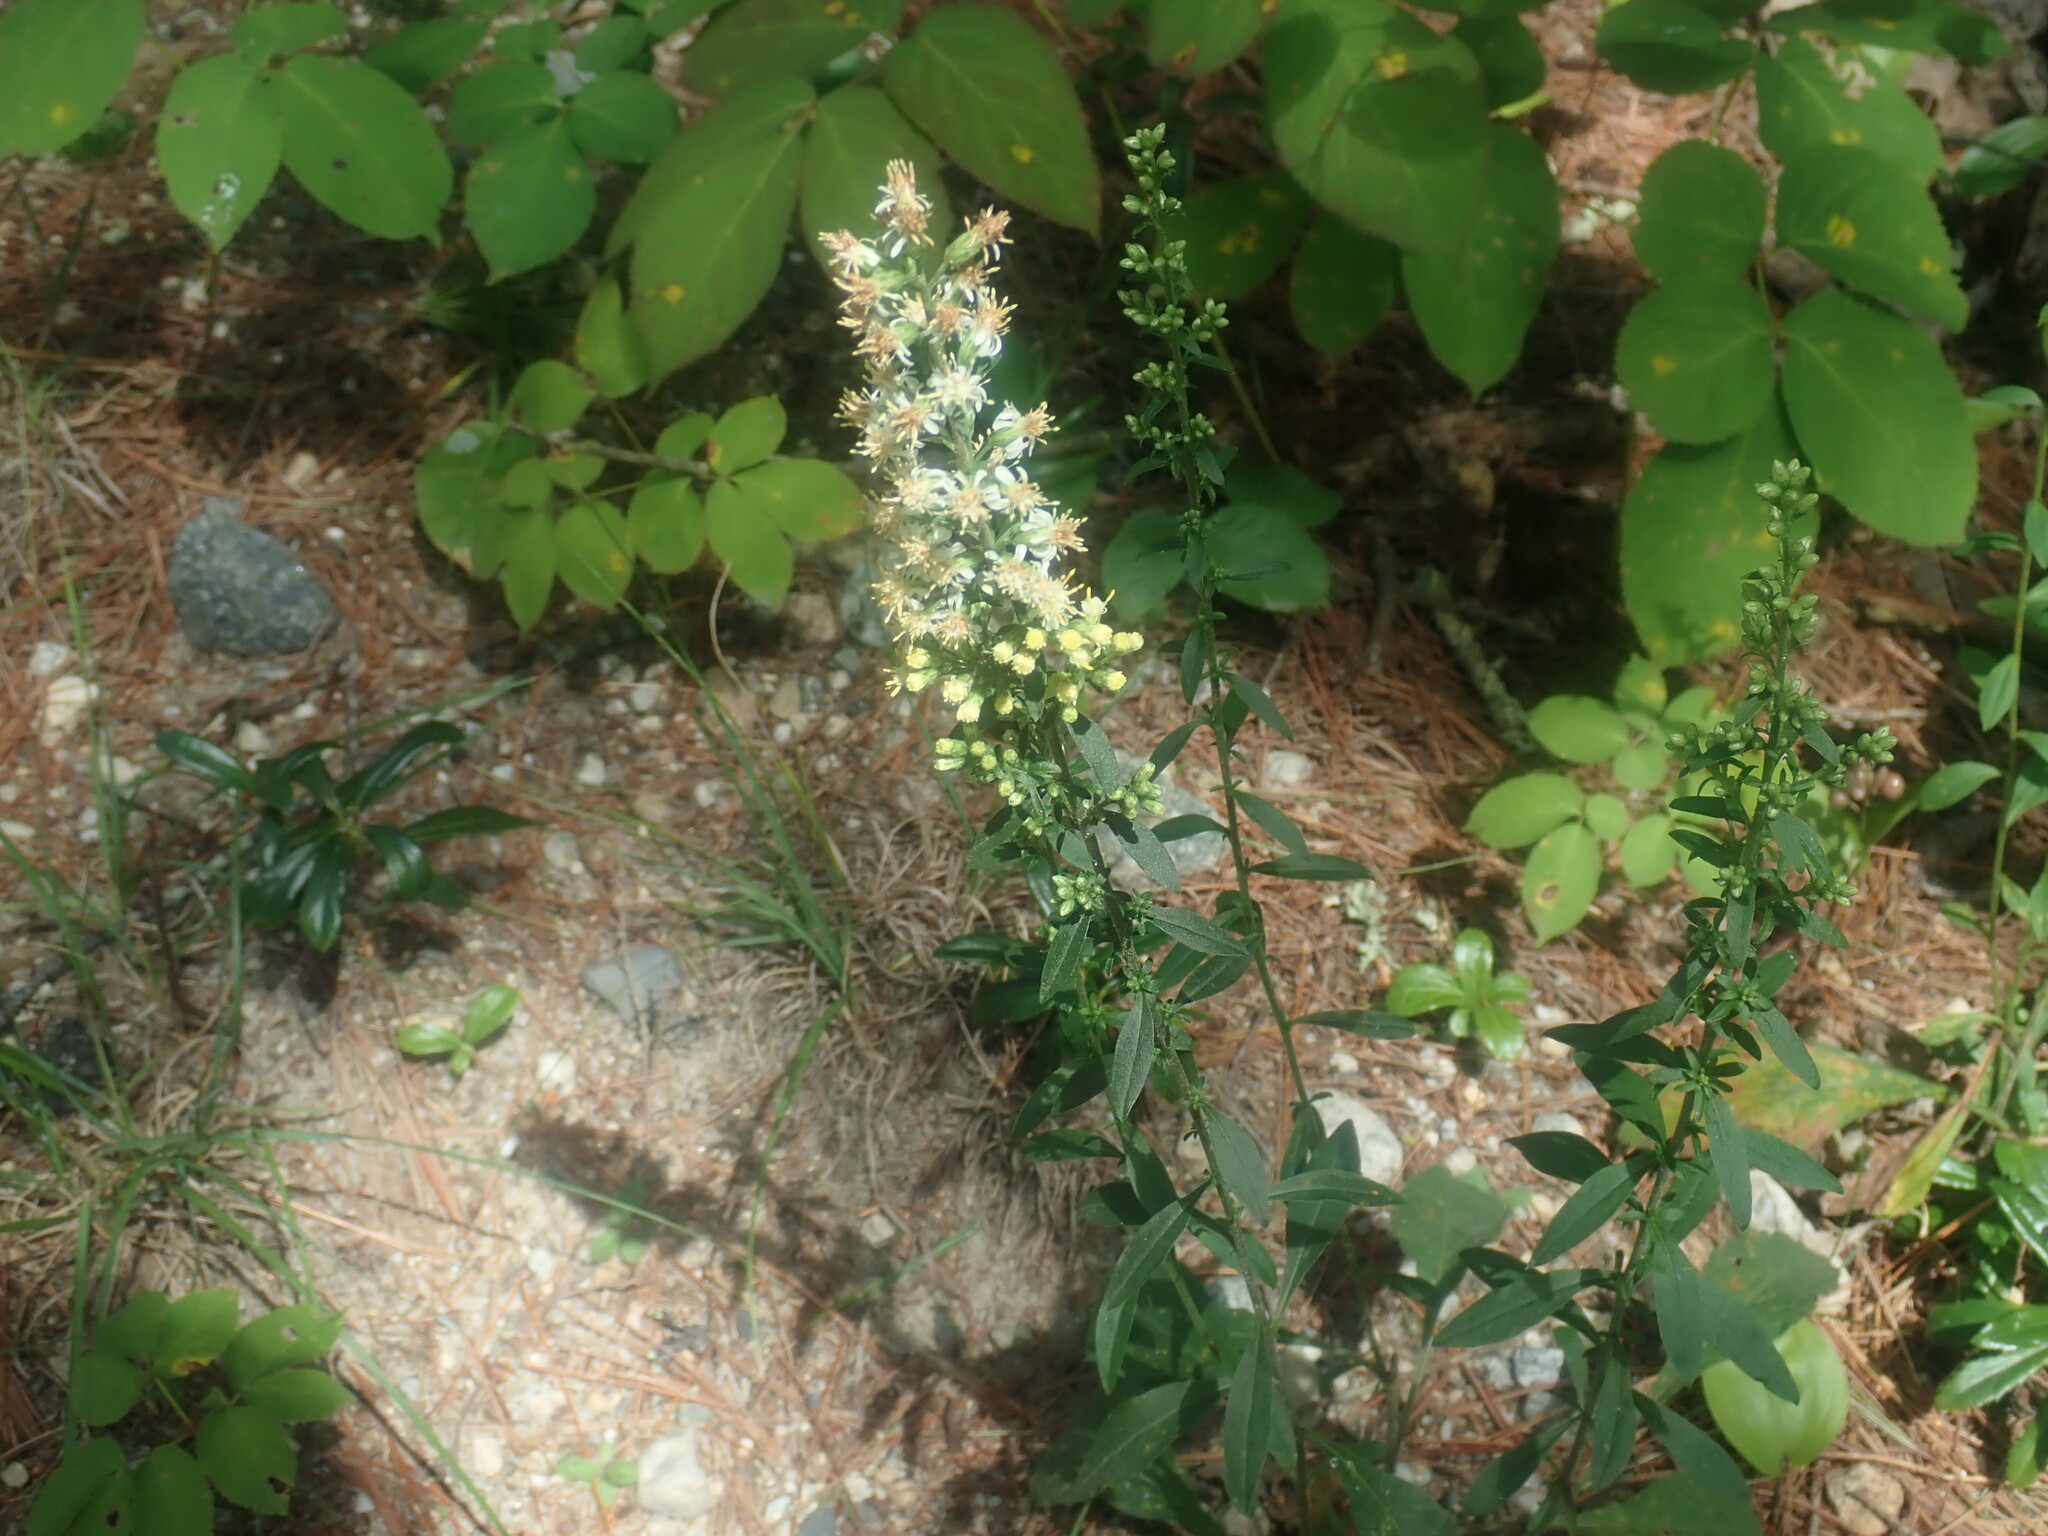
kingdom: Plantae
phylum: Tracheophyta
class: Magnoliopsida
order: Asterales
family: Asteraceae
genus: Solidago
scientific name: Solidago bicolor
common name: Silverrod
